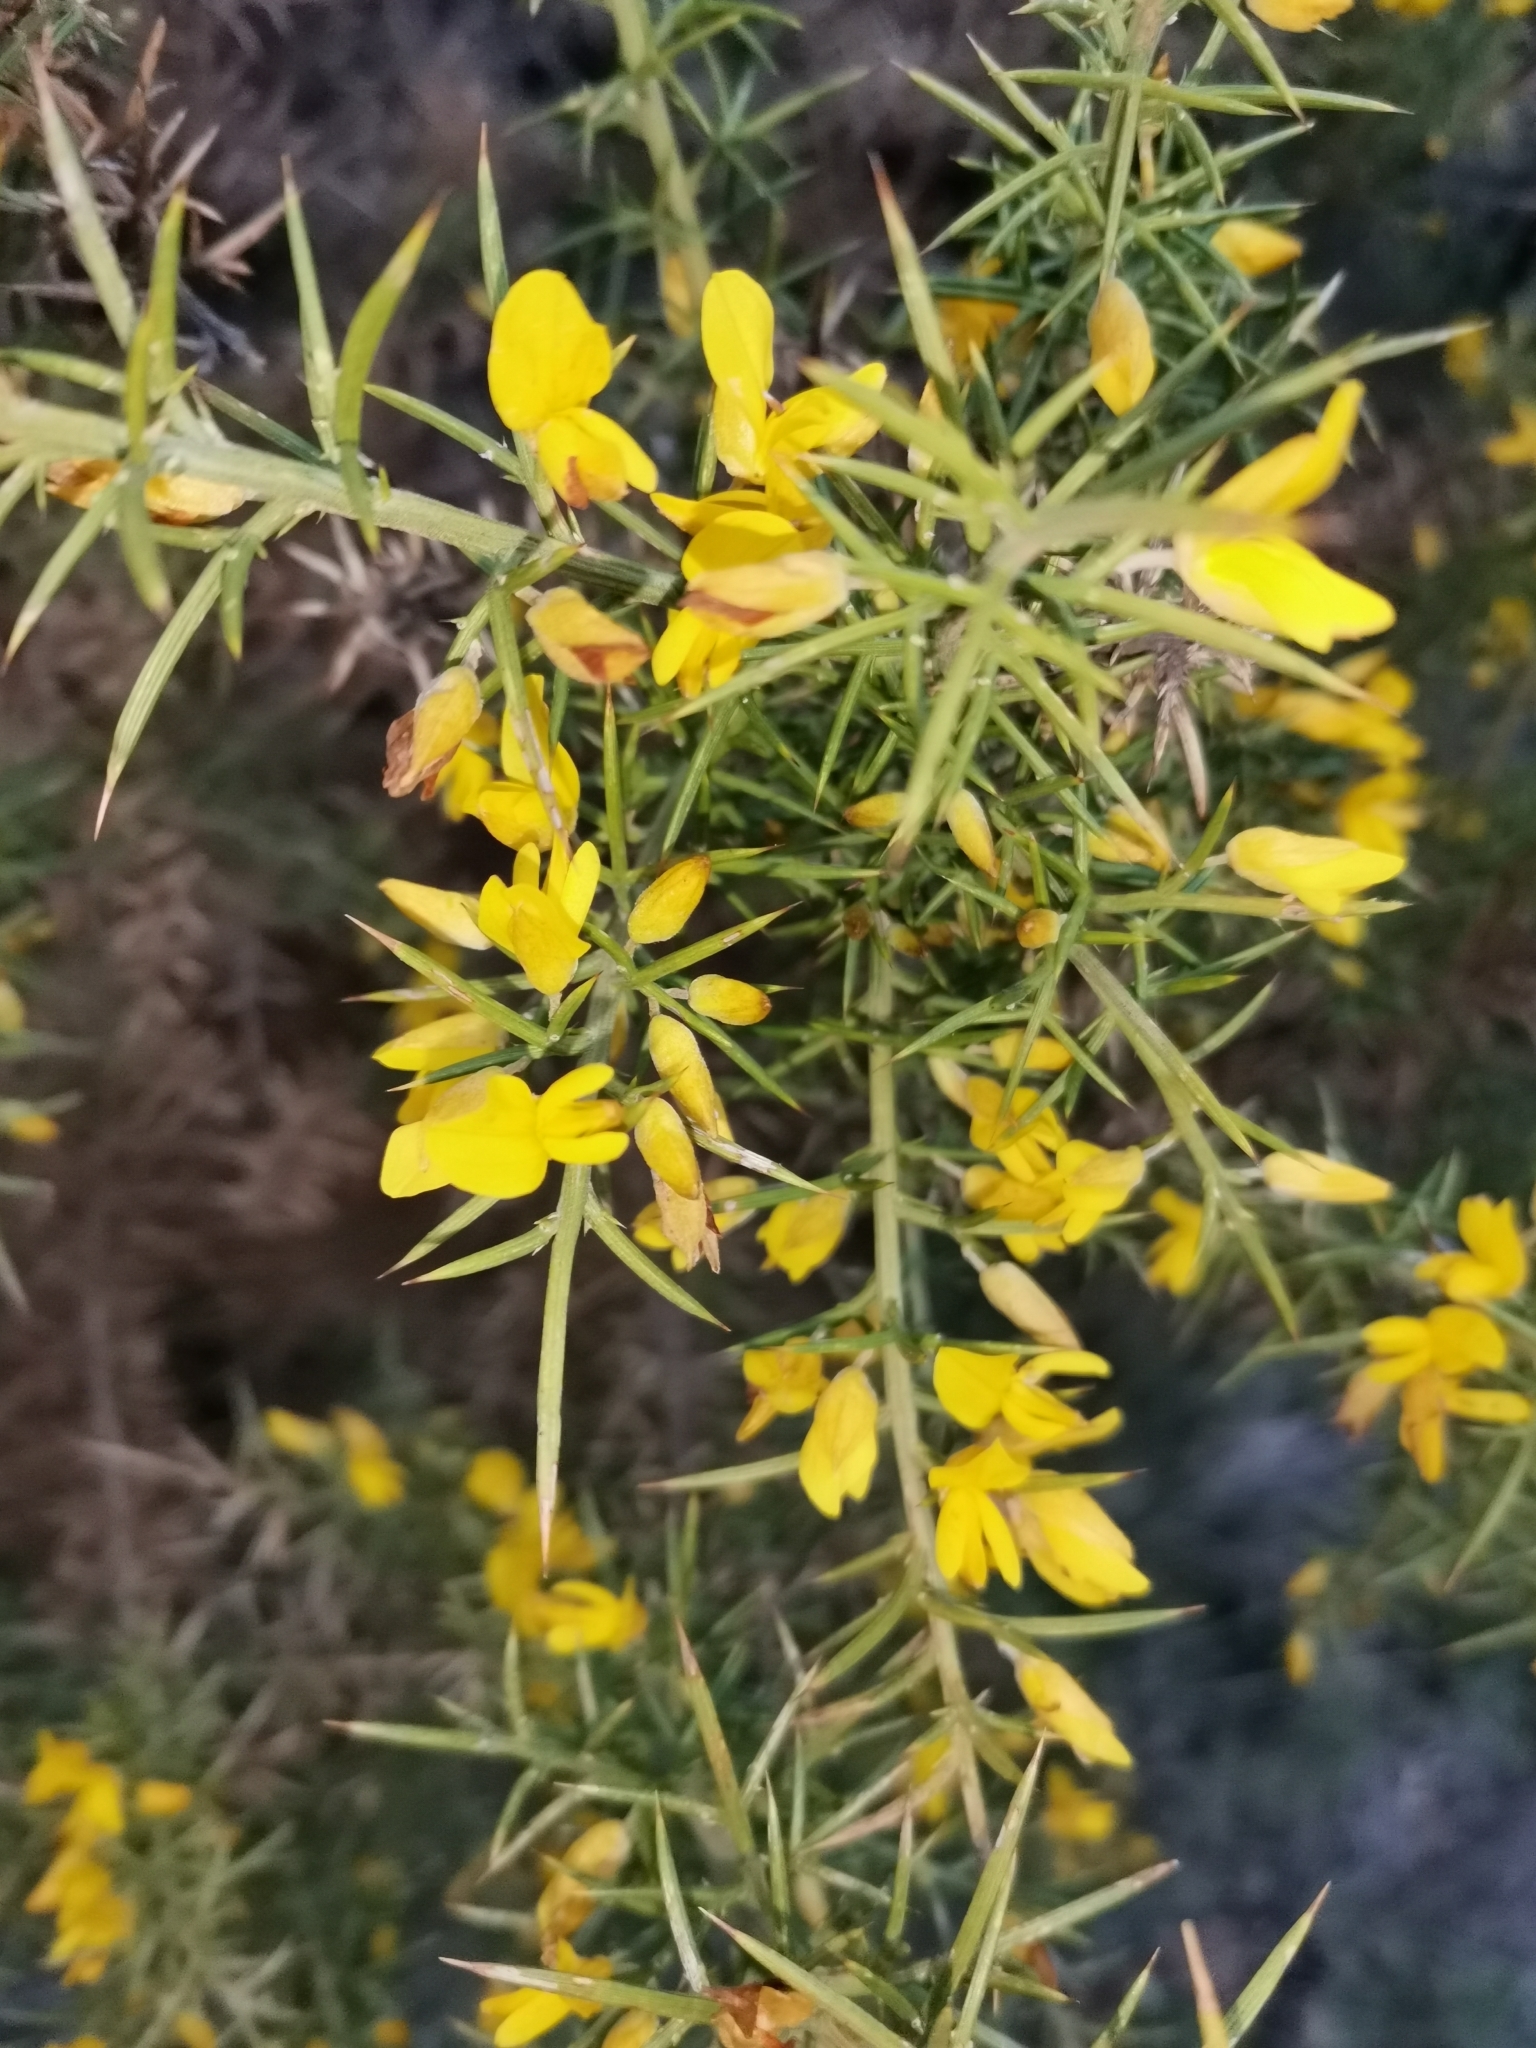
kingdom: Plantae
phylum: Tracheophyta
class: Magnoliopsida
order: Fabales
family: Fabaceae
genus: Ulex
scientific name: Ulex parviflorus
